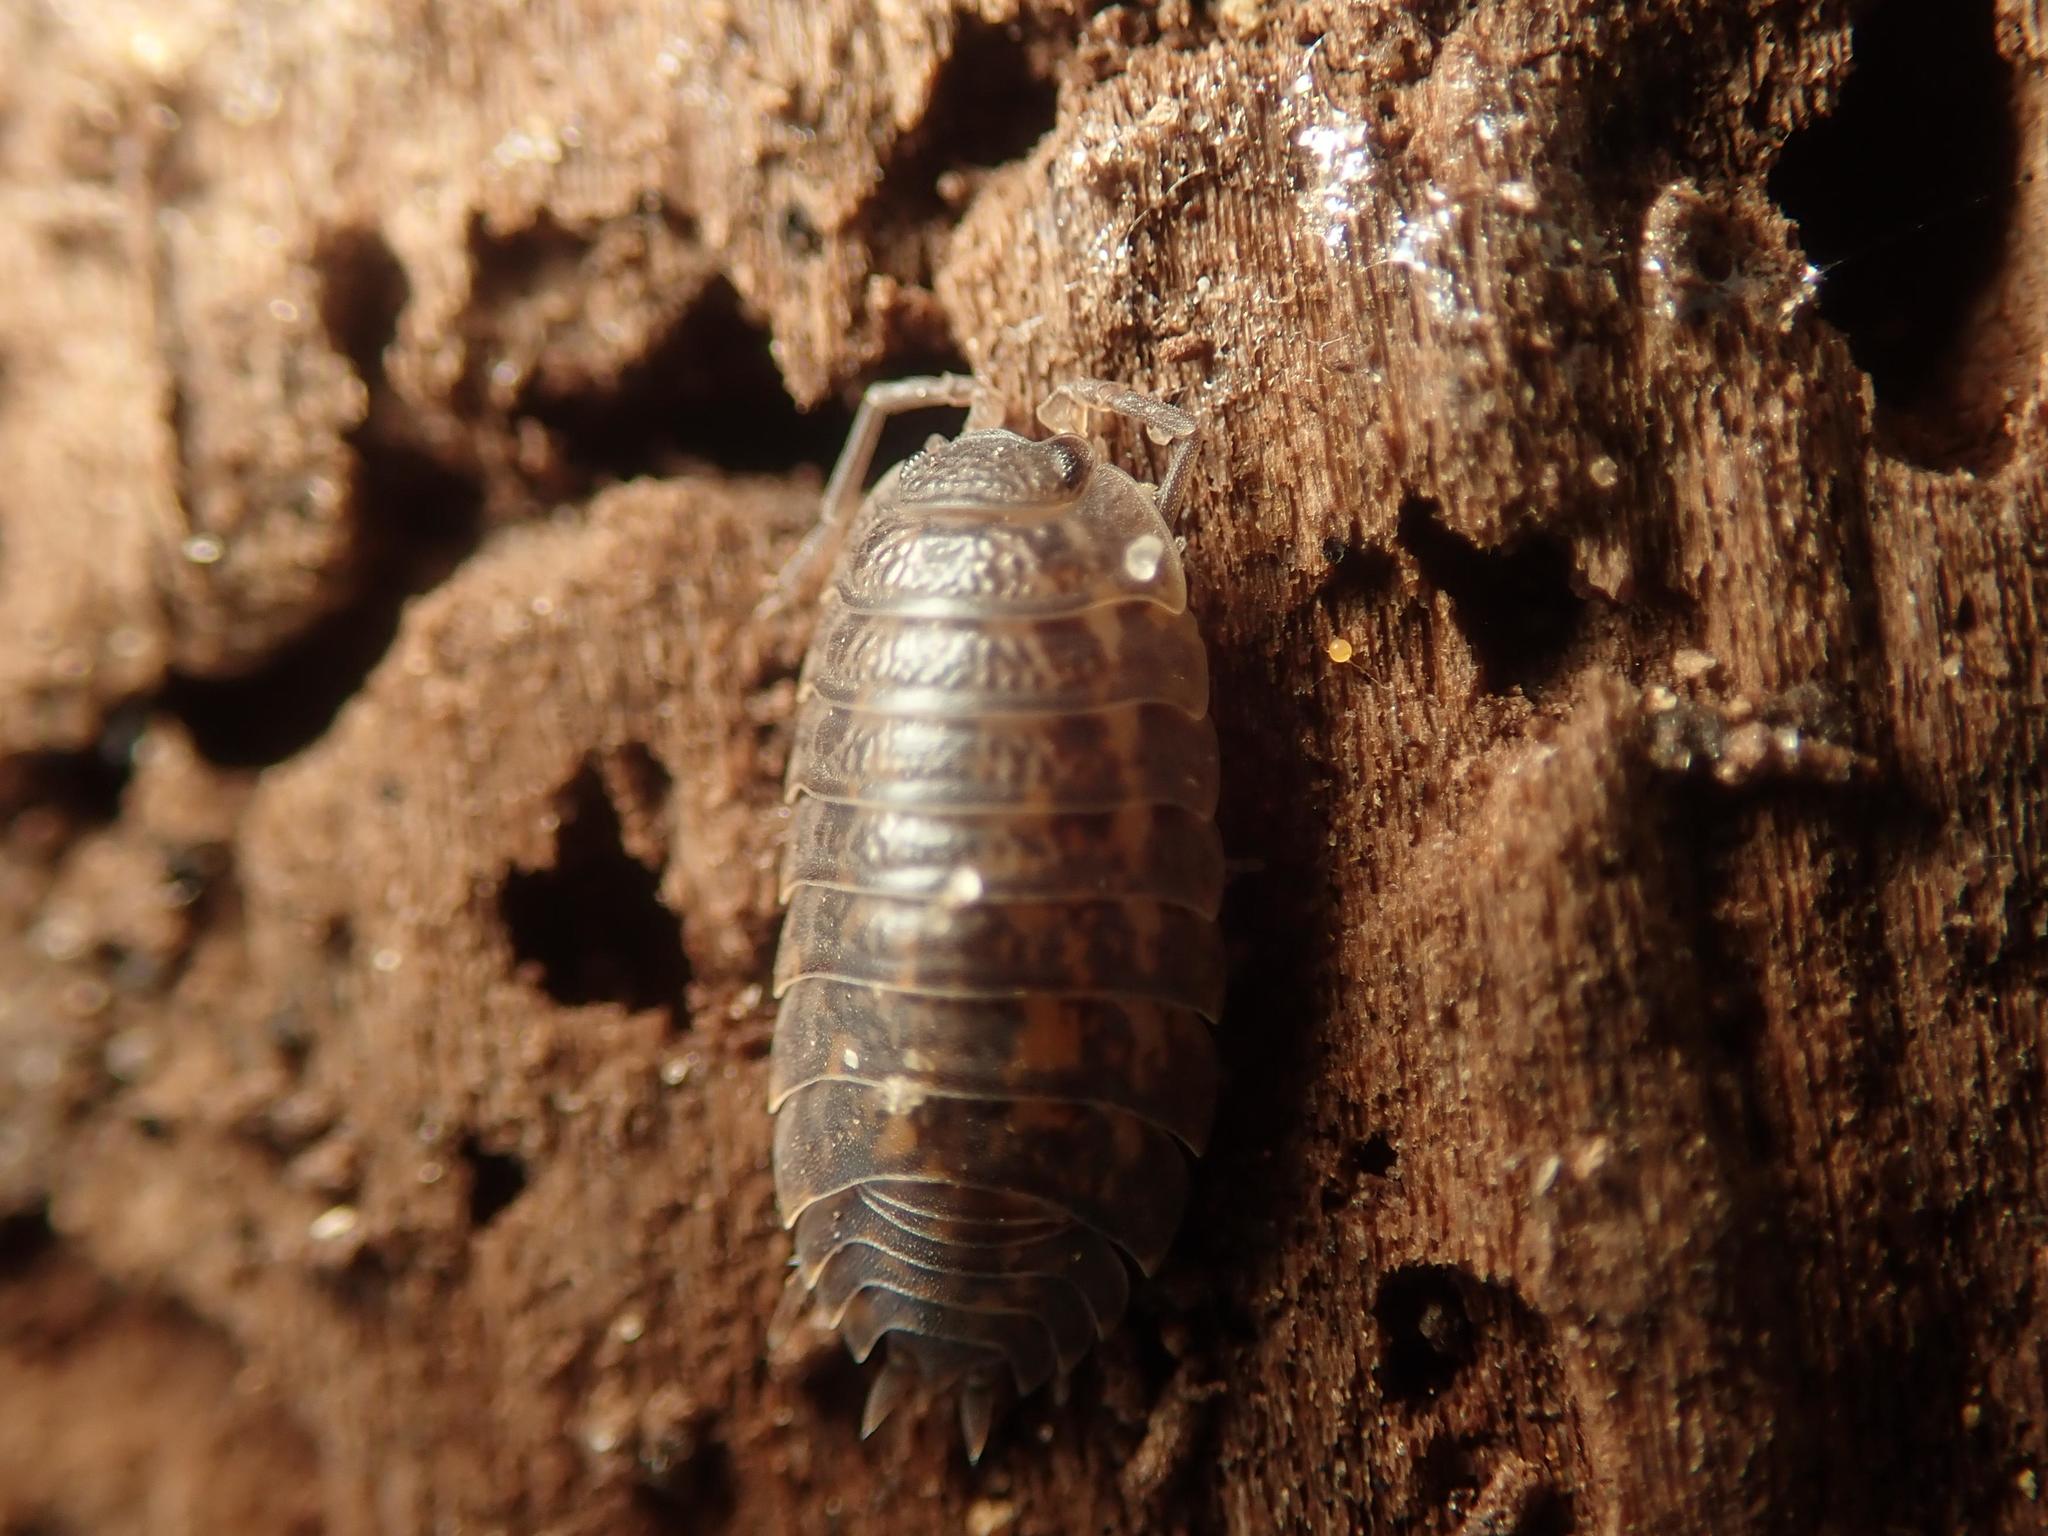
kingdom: Animalia
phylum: Arthropoda
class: Malacostraca
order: Isopoda
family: Trachelipodidae
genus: Trachelipus
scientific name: Trachelipus rathkii
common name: Isopod
